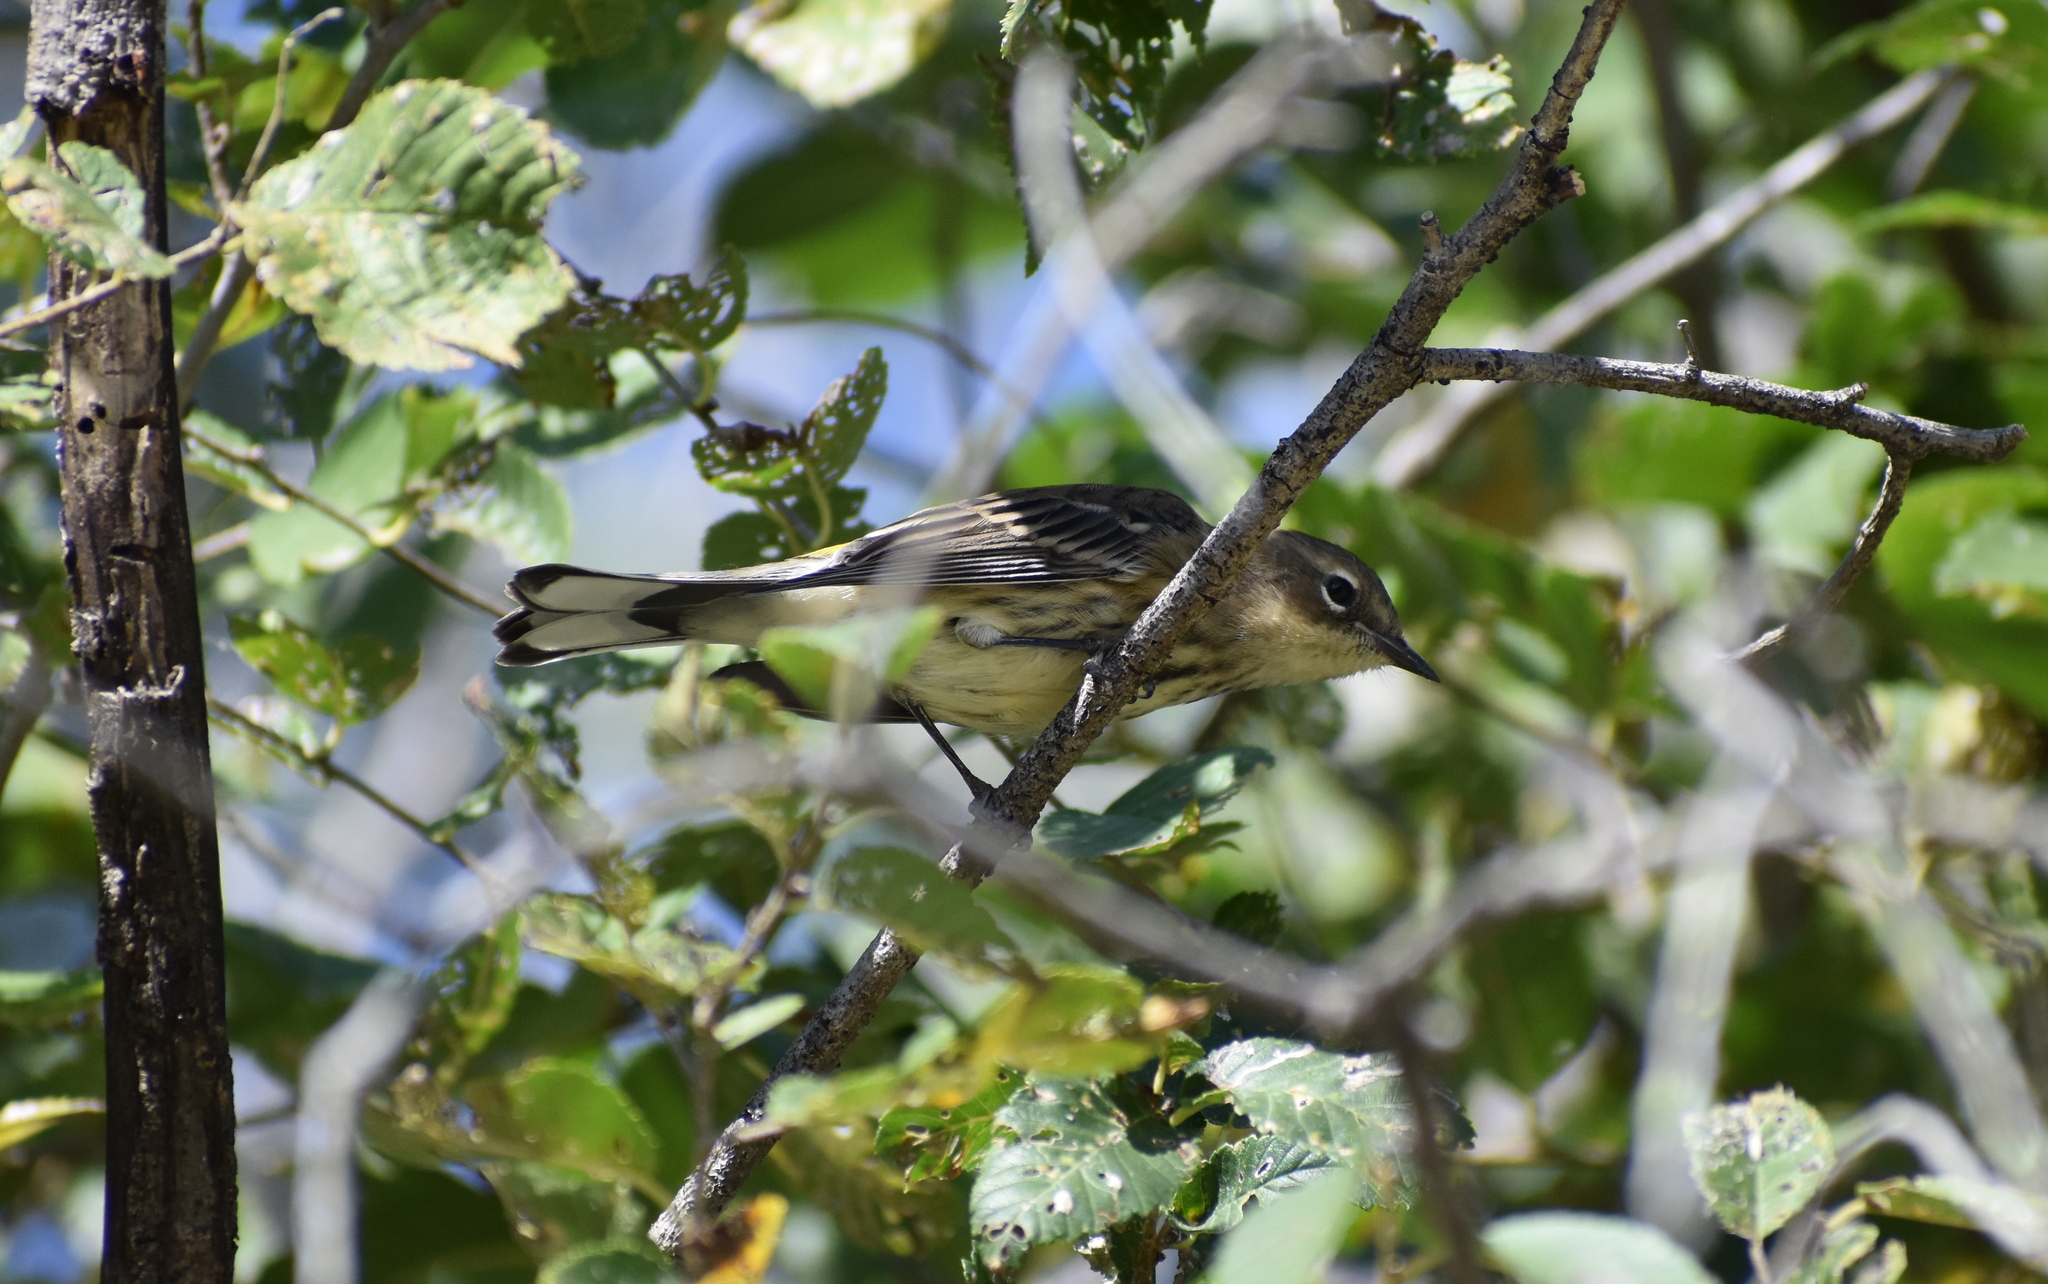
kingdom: Animalia
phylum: Chordata
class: Aves
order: Passeriformes
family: Parulidae
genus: Setophaga
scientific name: Setophaga coronata
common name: Myrtle warbler
